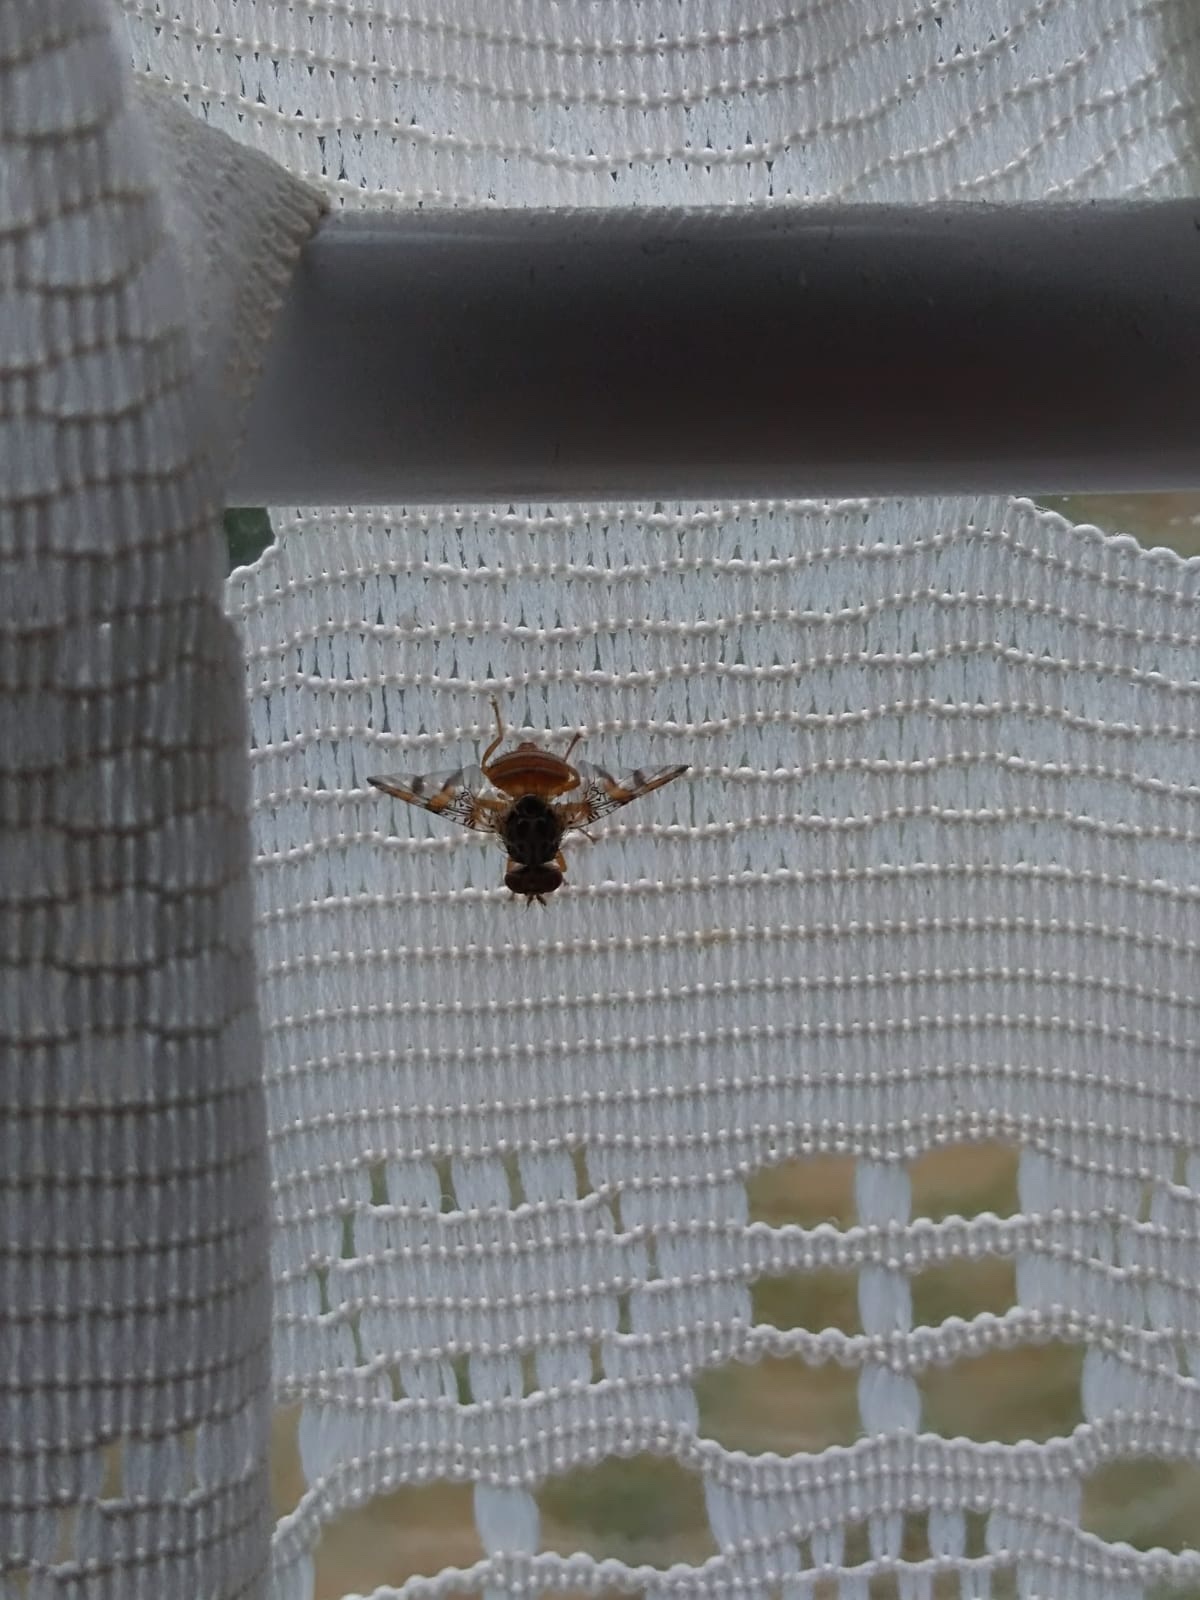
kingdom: Animalia
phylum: Arthropoda
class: Insecta
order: Diptera
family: Tephritidae
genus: Ceratitis
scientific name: Ceratitis capitata
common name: Mediterranean fruit fly
